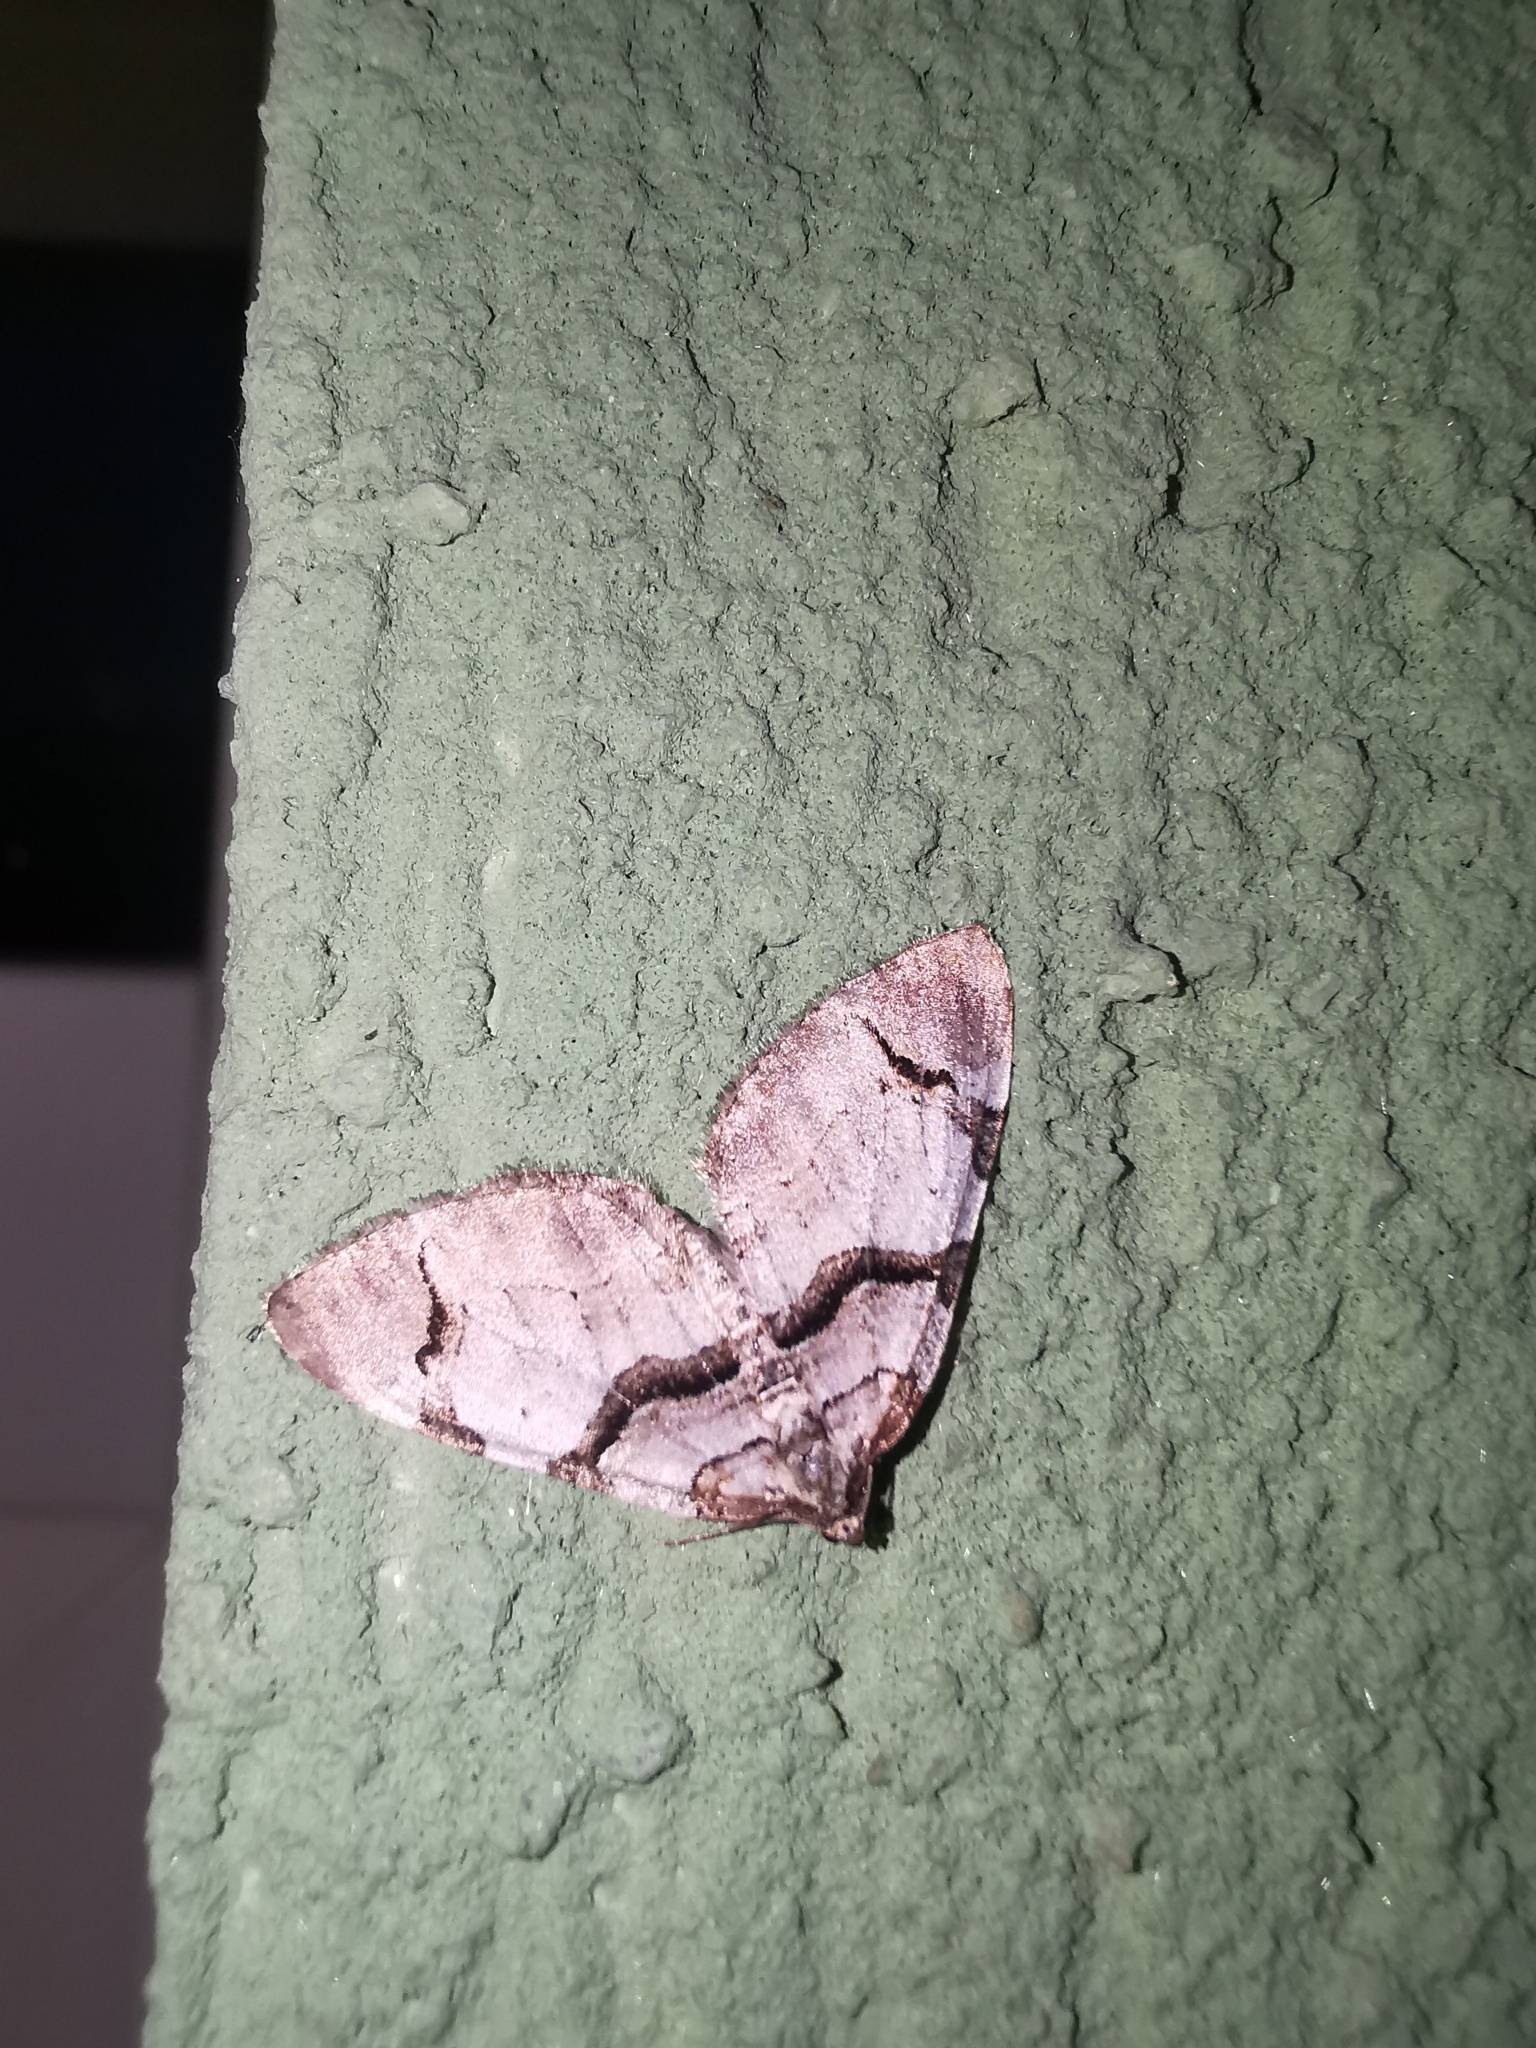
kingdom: Animalia
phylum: Arthropoda
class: Insecta
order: Lepidoptera
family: Geometridae
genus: Anticlea
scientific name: Anticlea derivata
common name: Streamer
